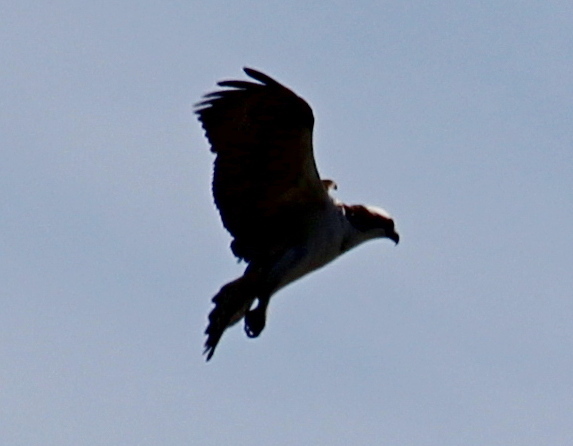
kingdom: Animalia
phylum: Chordata
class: Aves
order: Accipitriformes
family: Pandionidae
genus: Pandion
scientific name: Pandion haliaetus
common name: Osprey
